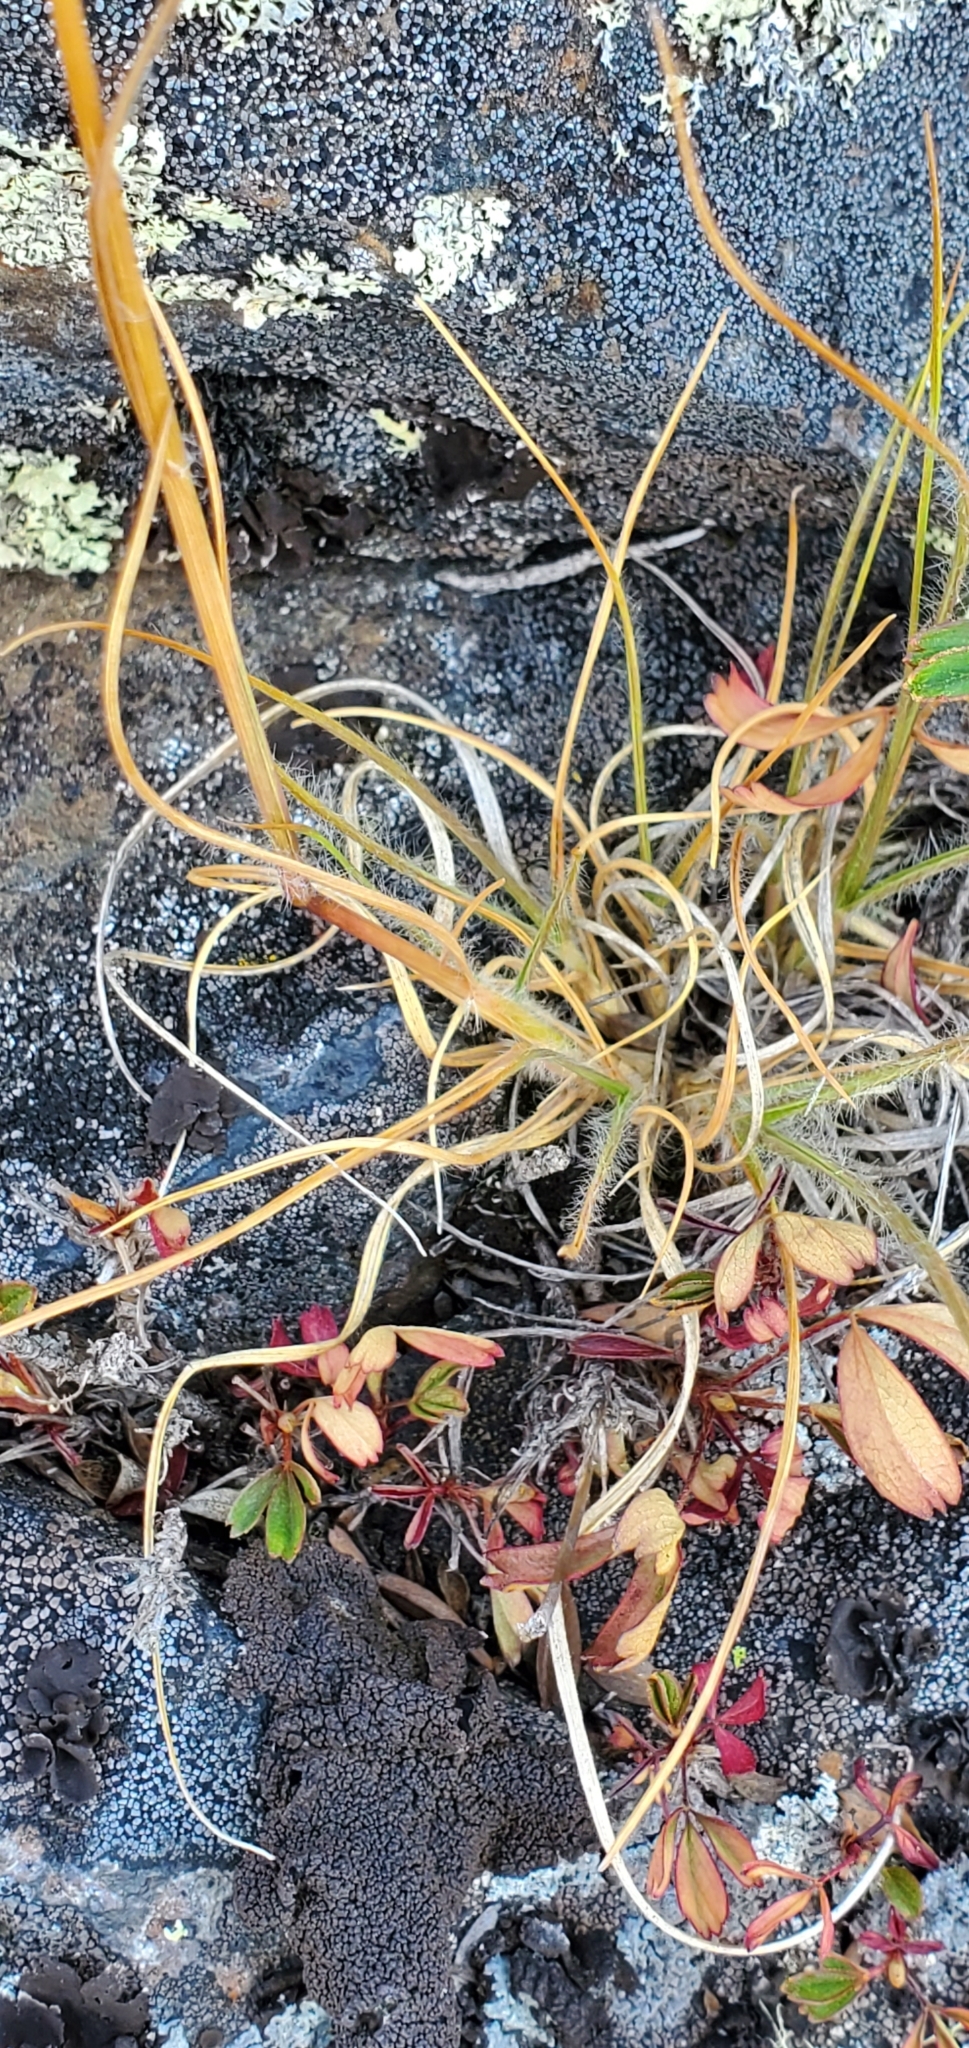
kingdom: Plantae
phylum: Tracheophyta
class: Liliopsida
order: Poales
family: Poaceae
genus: Danthonia
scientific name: Danthonia spicata
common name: Common wild oatgrass
